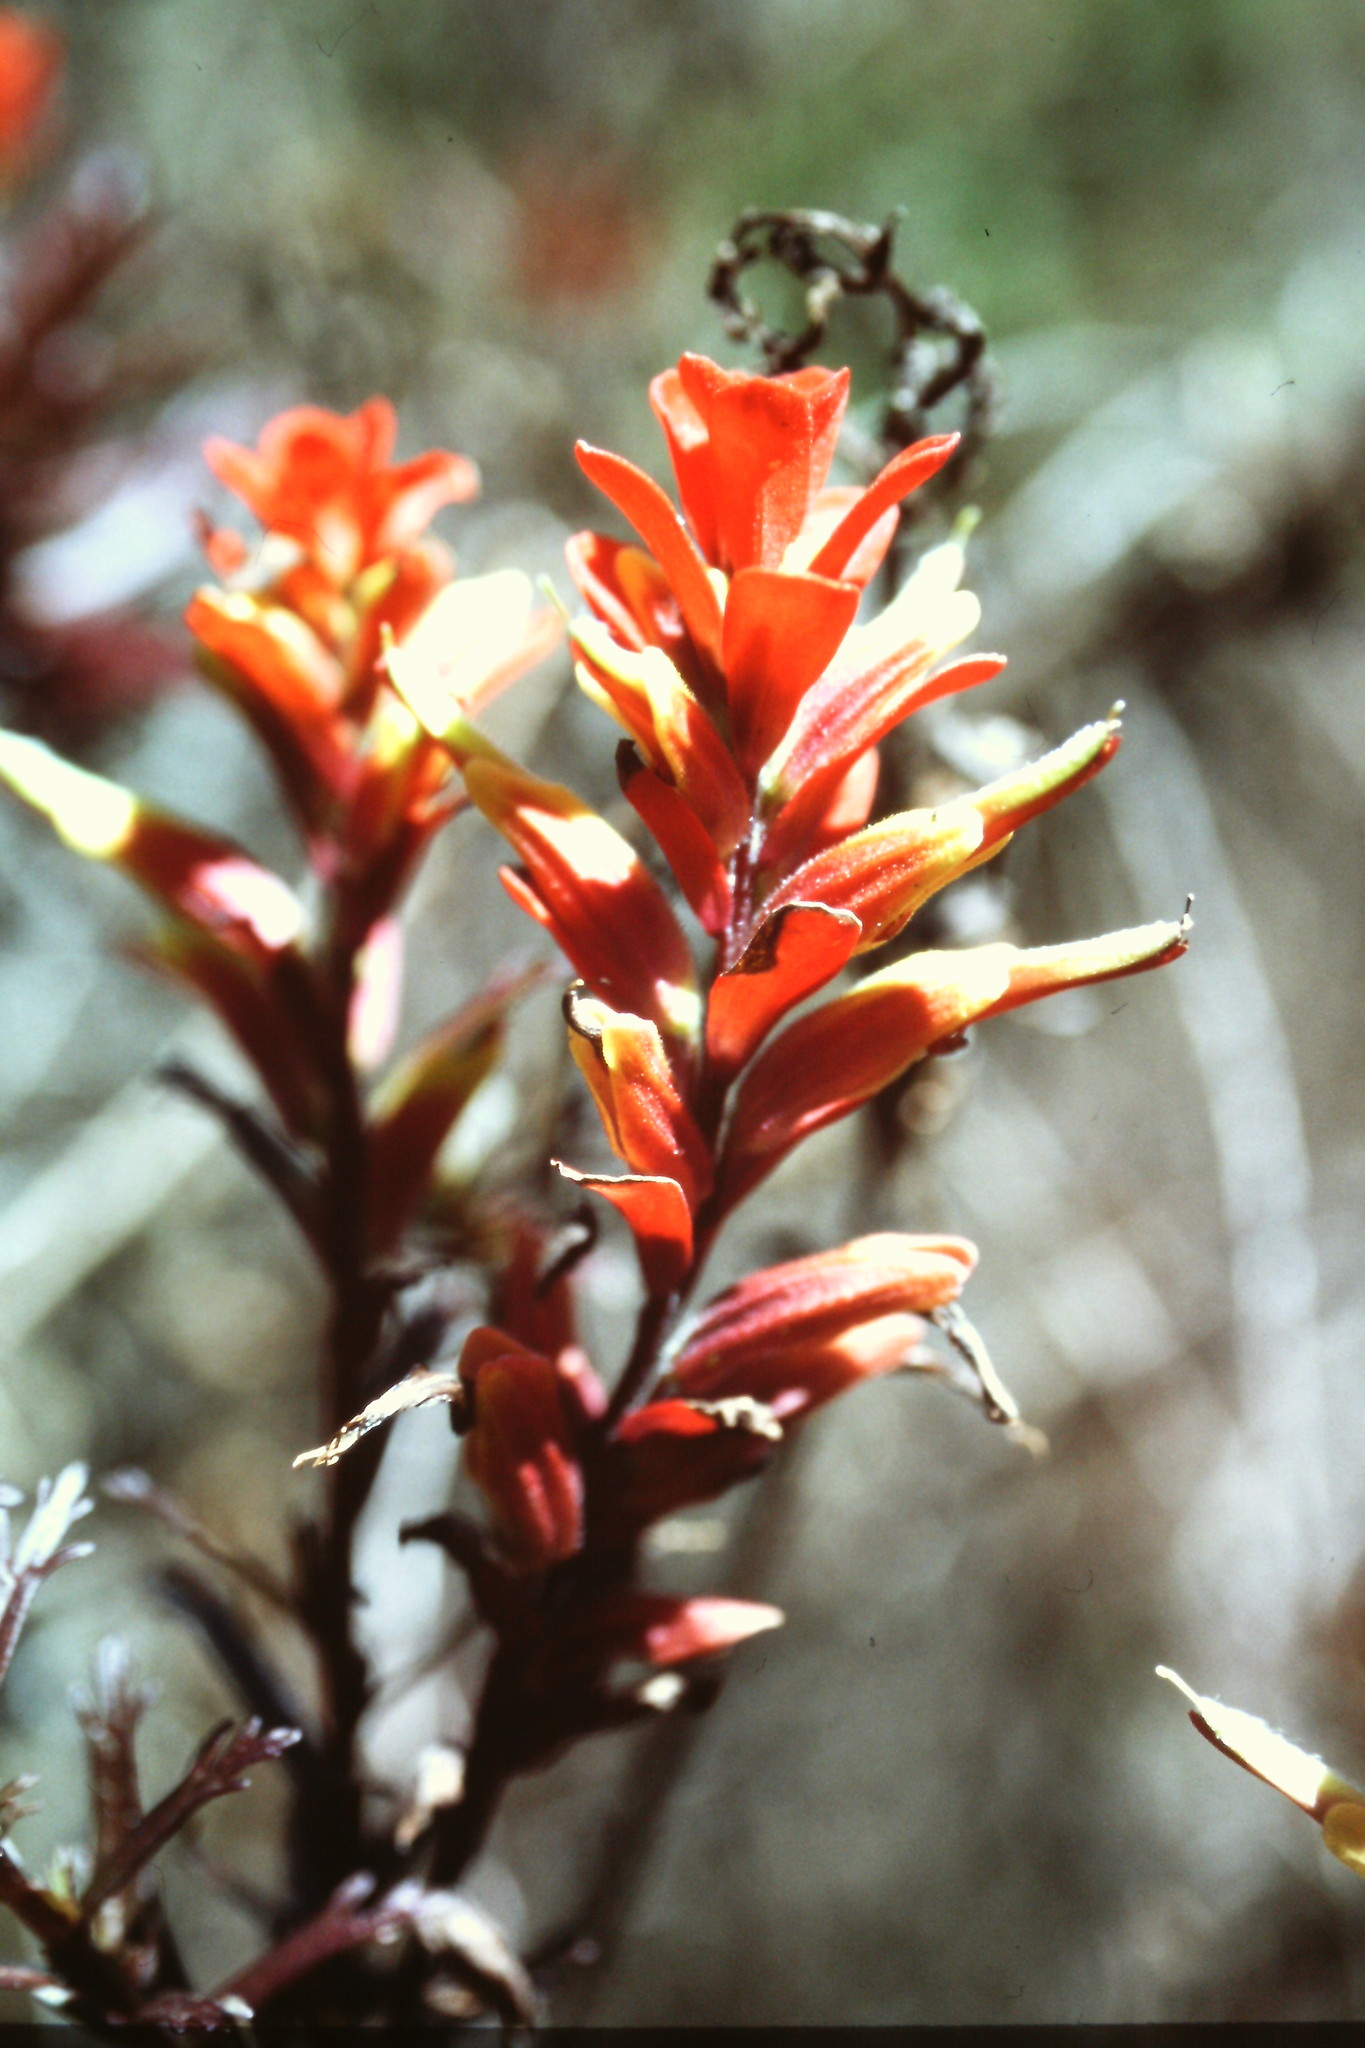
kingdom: Plantae
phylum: Tracheophyta
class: Magnoliopsida
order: Lamiales
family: Orobanchaceae
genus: Castilleja
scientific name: Castilleja irasuensis
